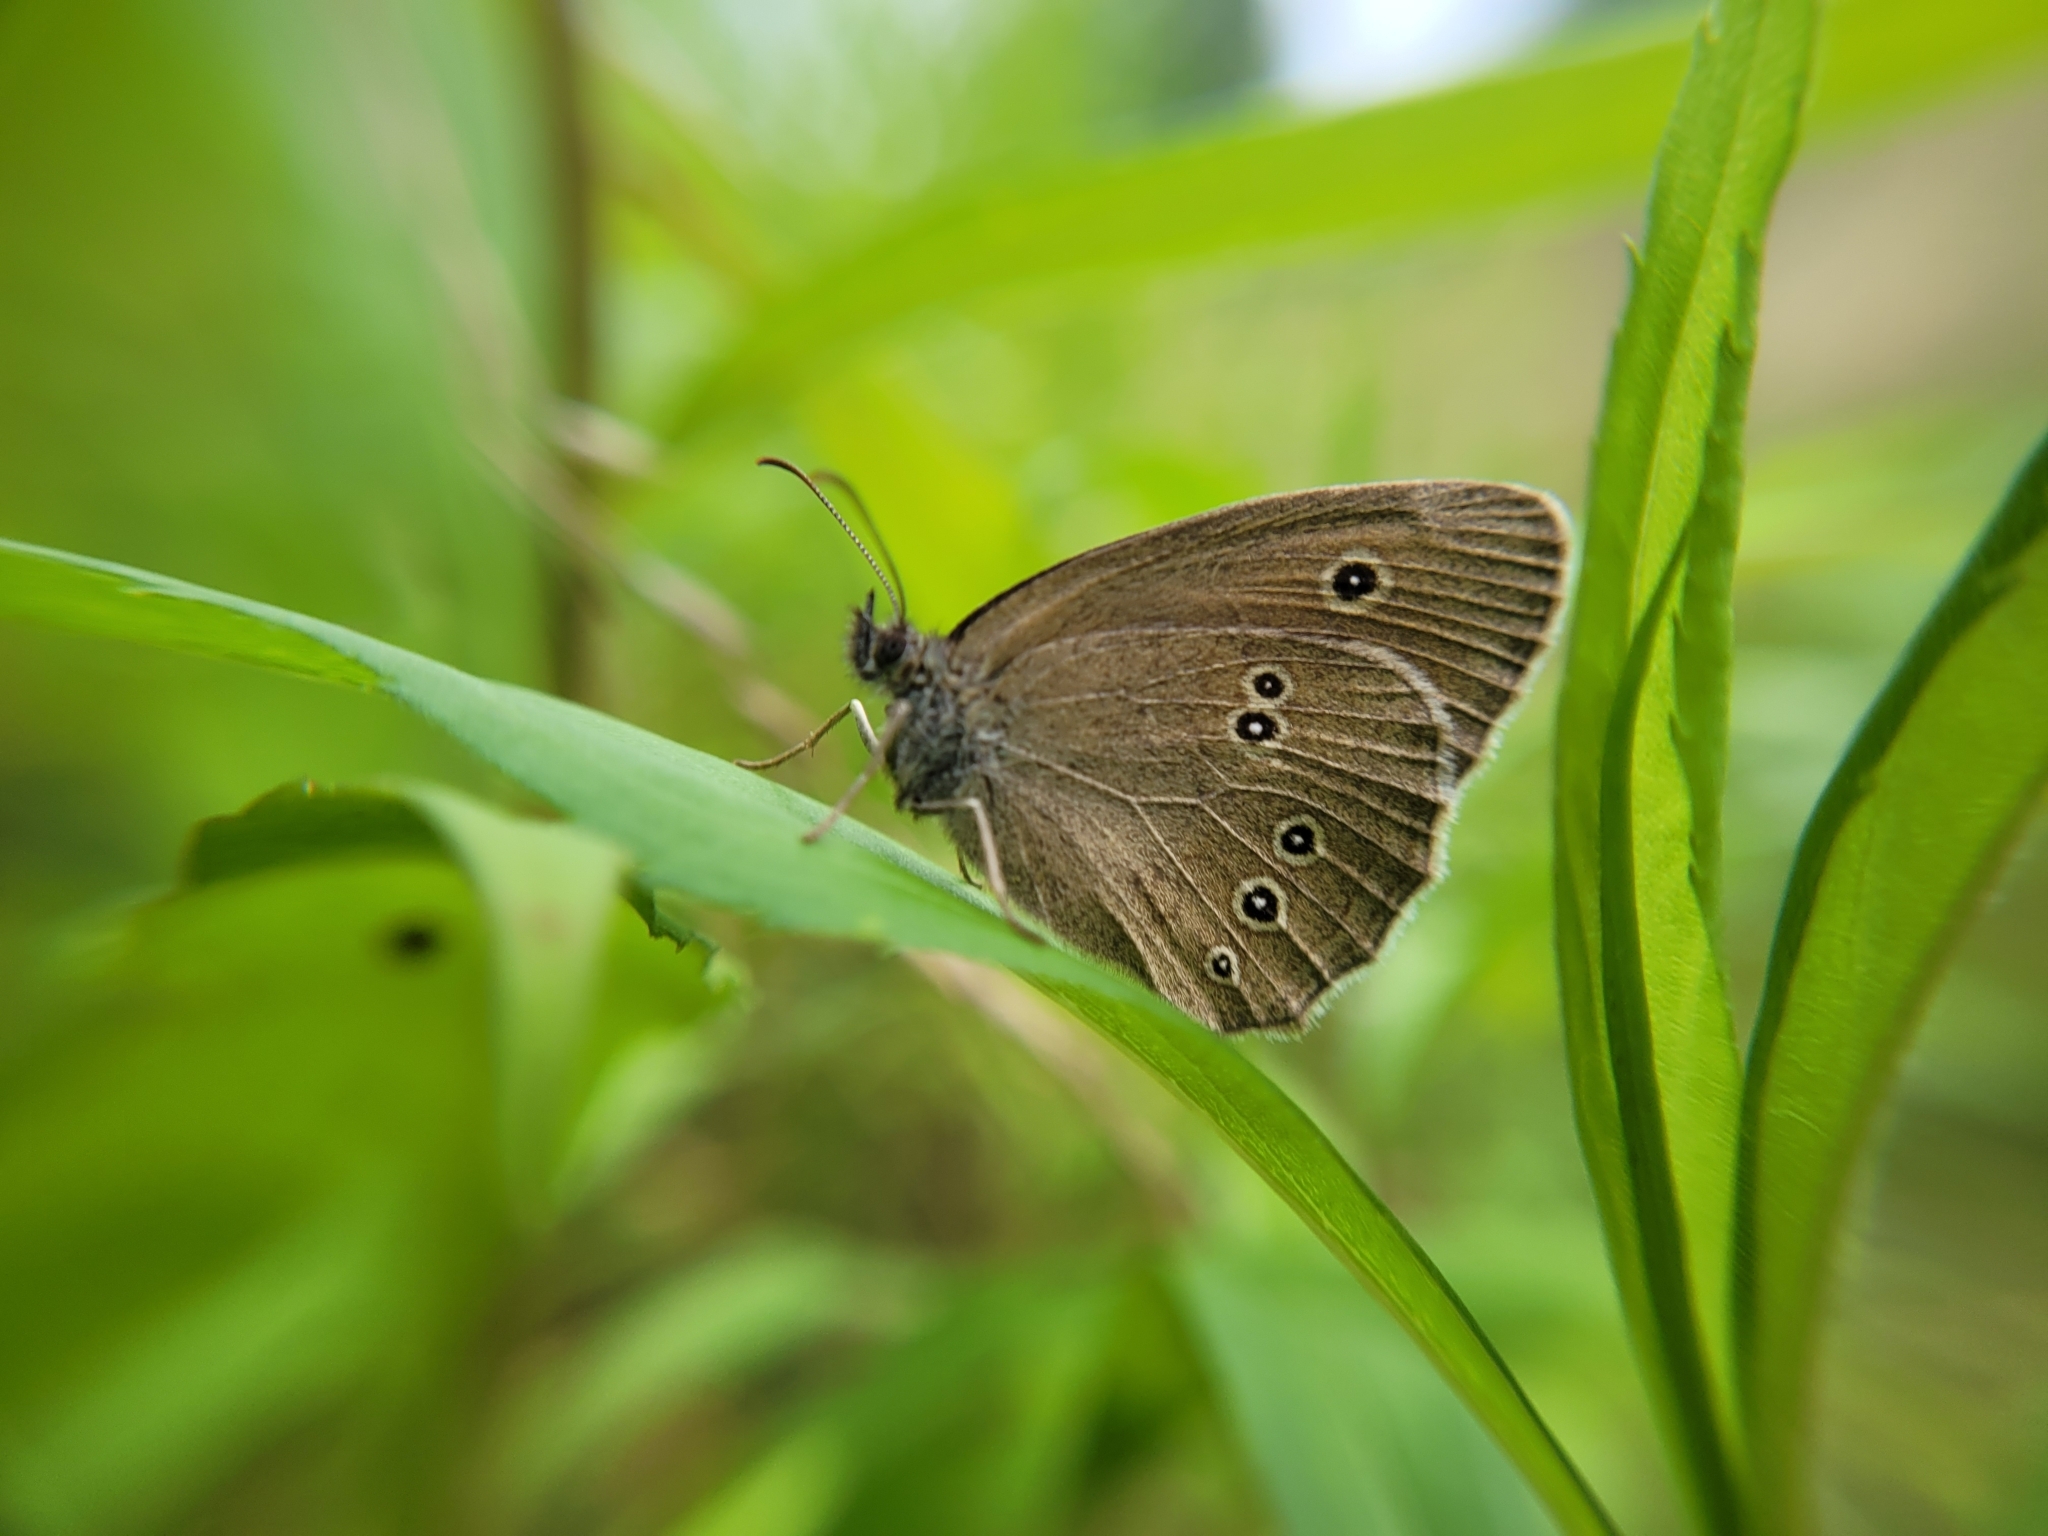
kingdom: Animalia
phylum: Arthropoda
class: Insecta
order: Lepidoptera
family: Nymphalidae
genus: Aphantopus
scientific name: Aphantopus hyperantus
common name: Ringlet
